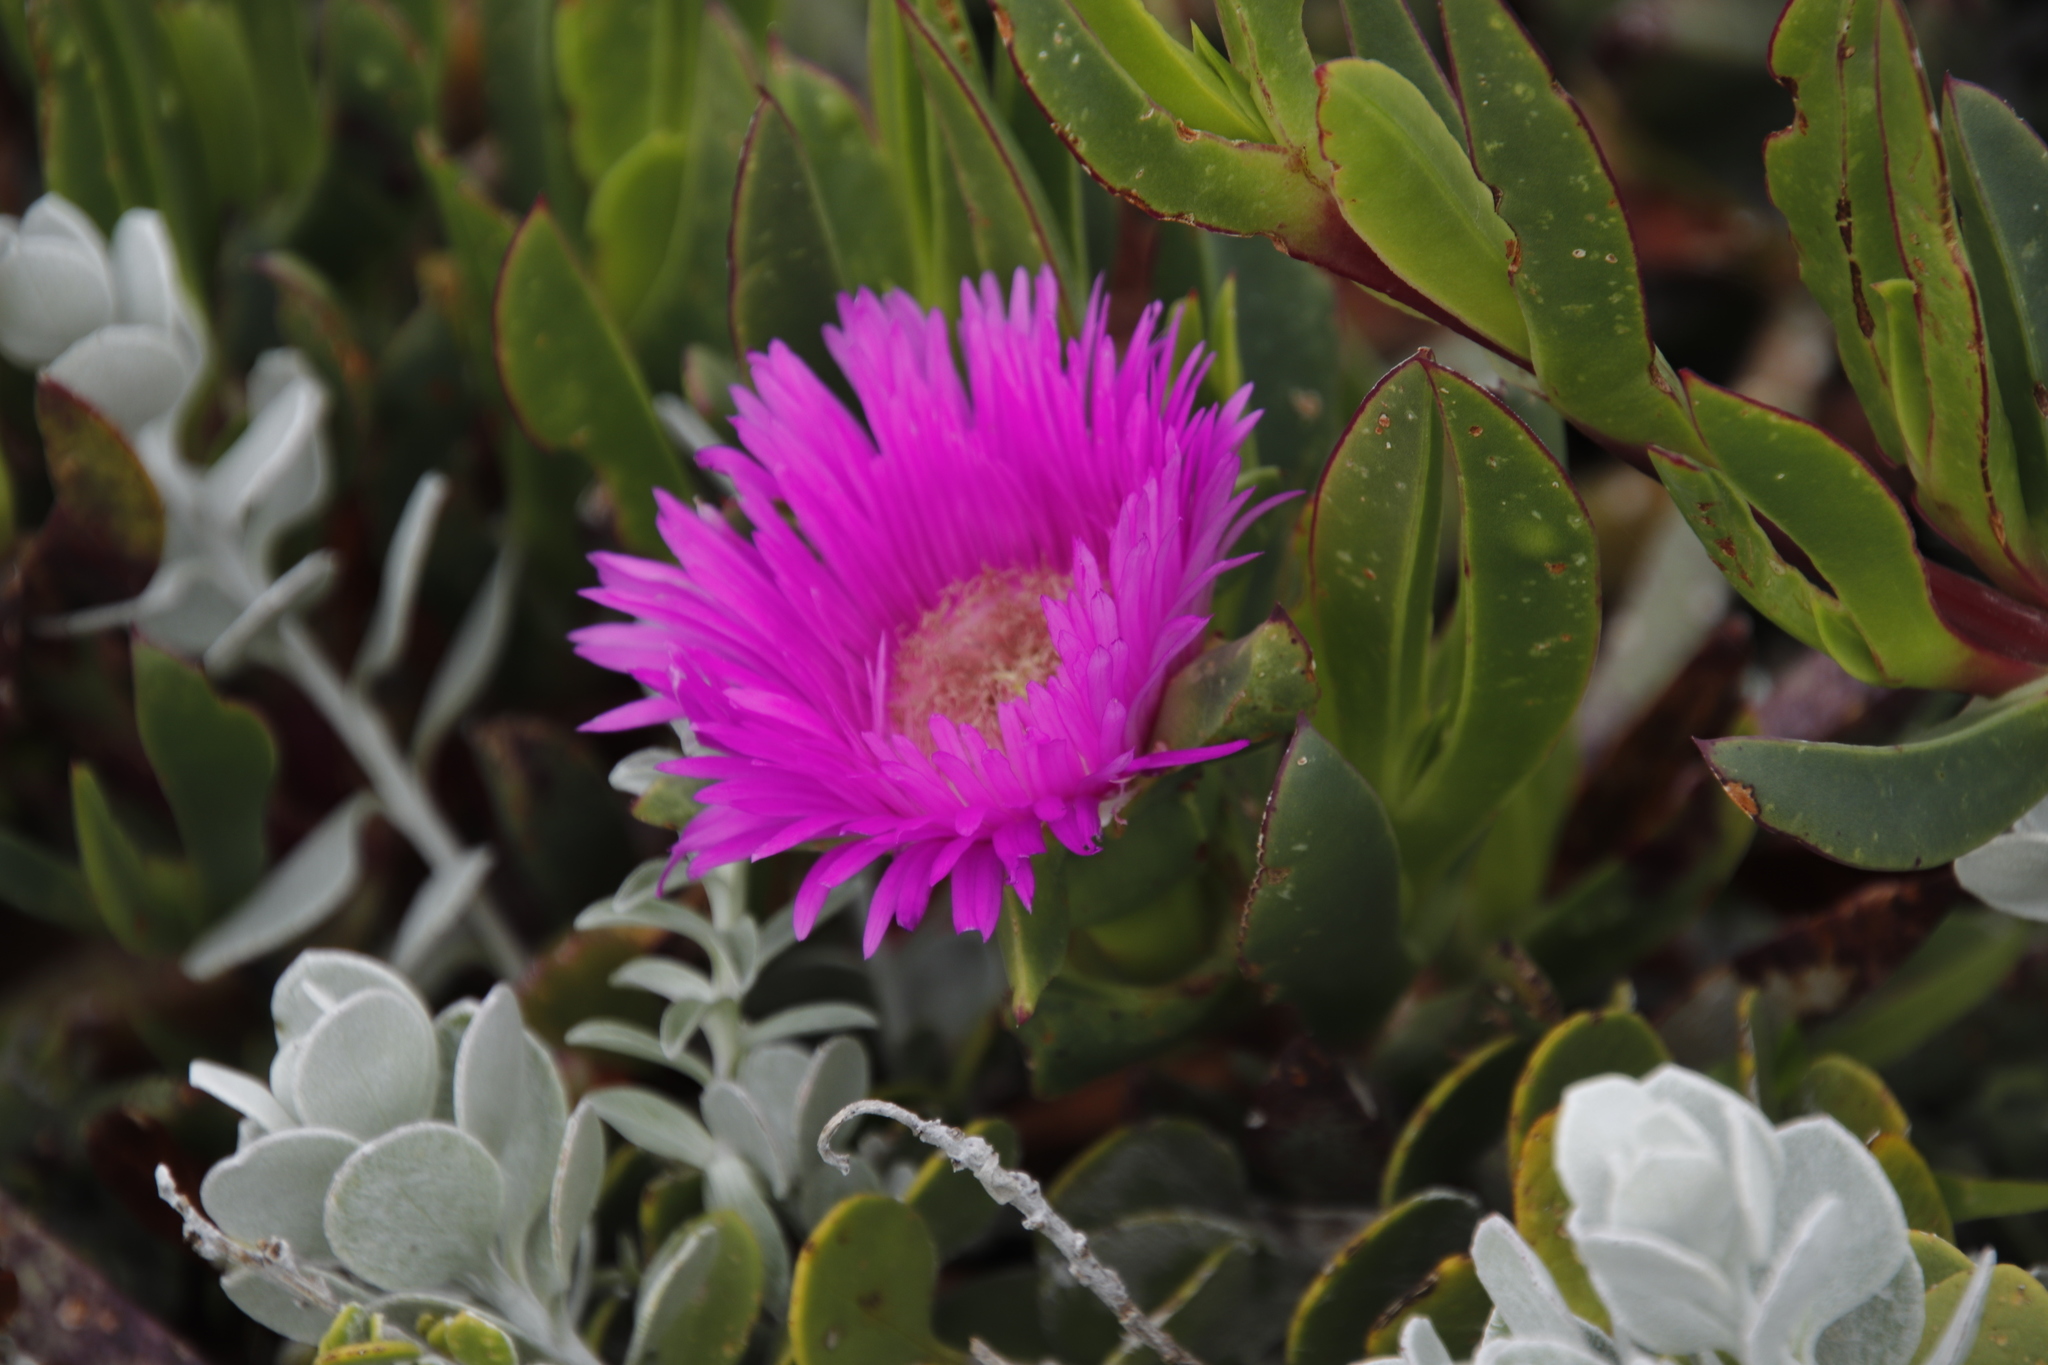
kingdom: Plantae
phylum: Tracheophyta
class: Magnoliopsida
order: Caryophyllales
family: Aizoaceae
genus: Carpobrotus
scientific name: Carpobrotus acinaciformis
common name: Sally-my-handsome
